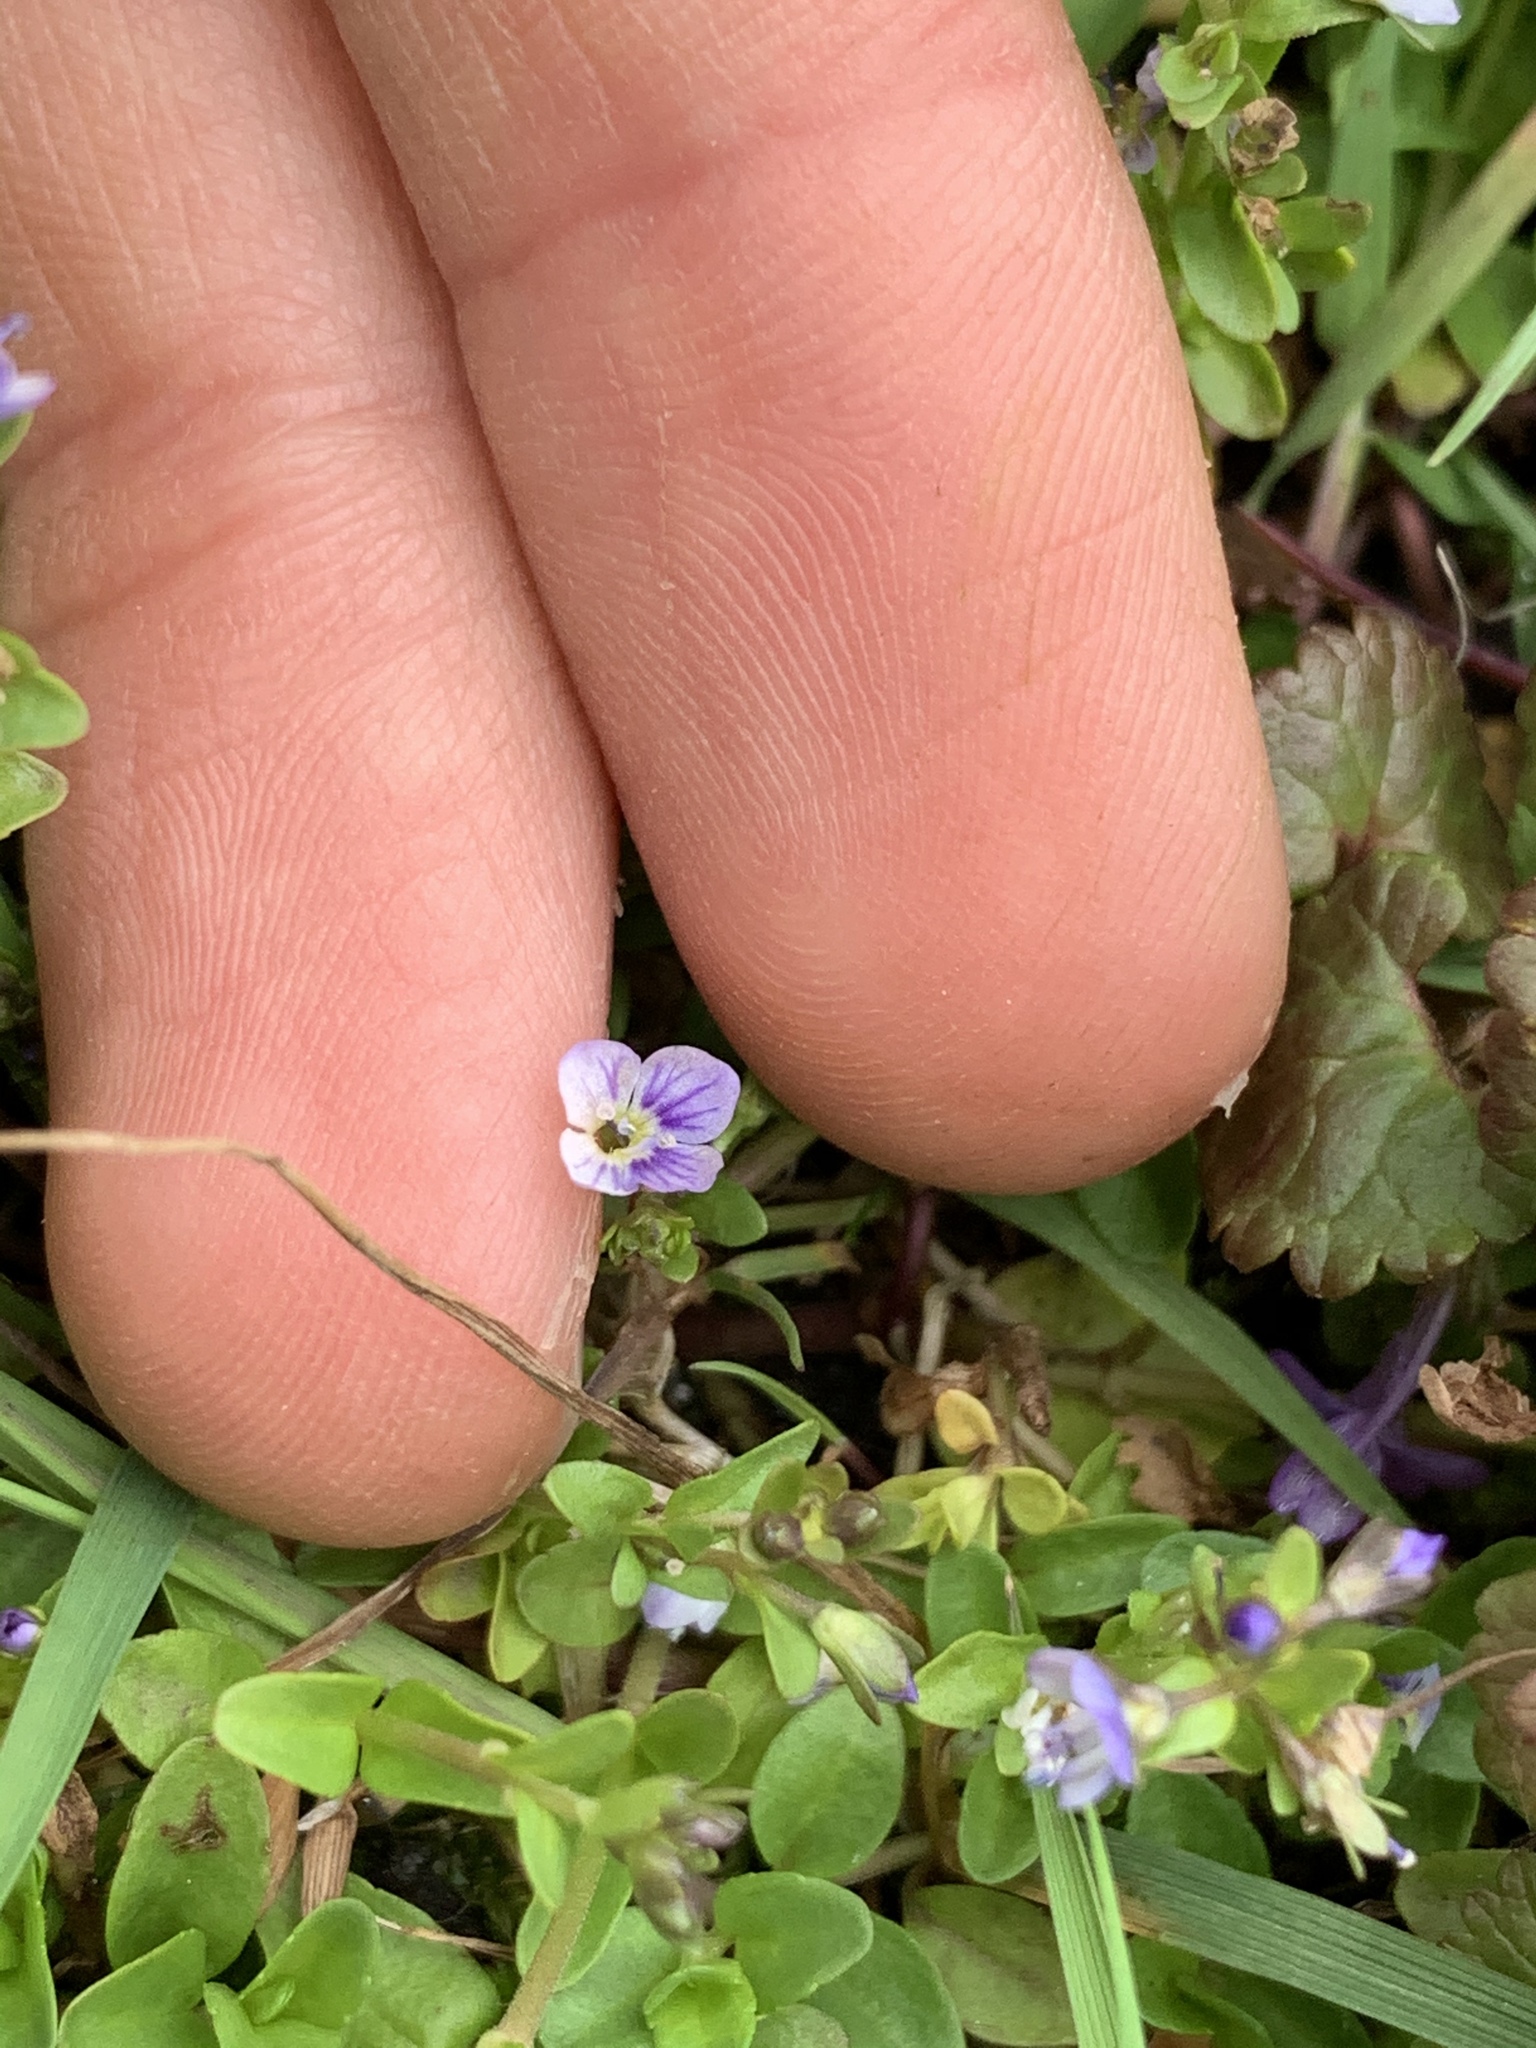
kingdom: Plantae
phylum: Tracheophyta
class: Magnoliopsida
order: Lamiales
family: Plantaginaceae
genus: Veronica
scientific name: Veronica serpyllifolia
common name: Thyme-leaved speedwell
